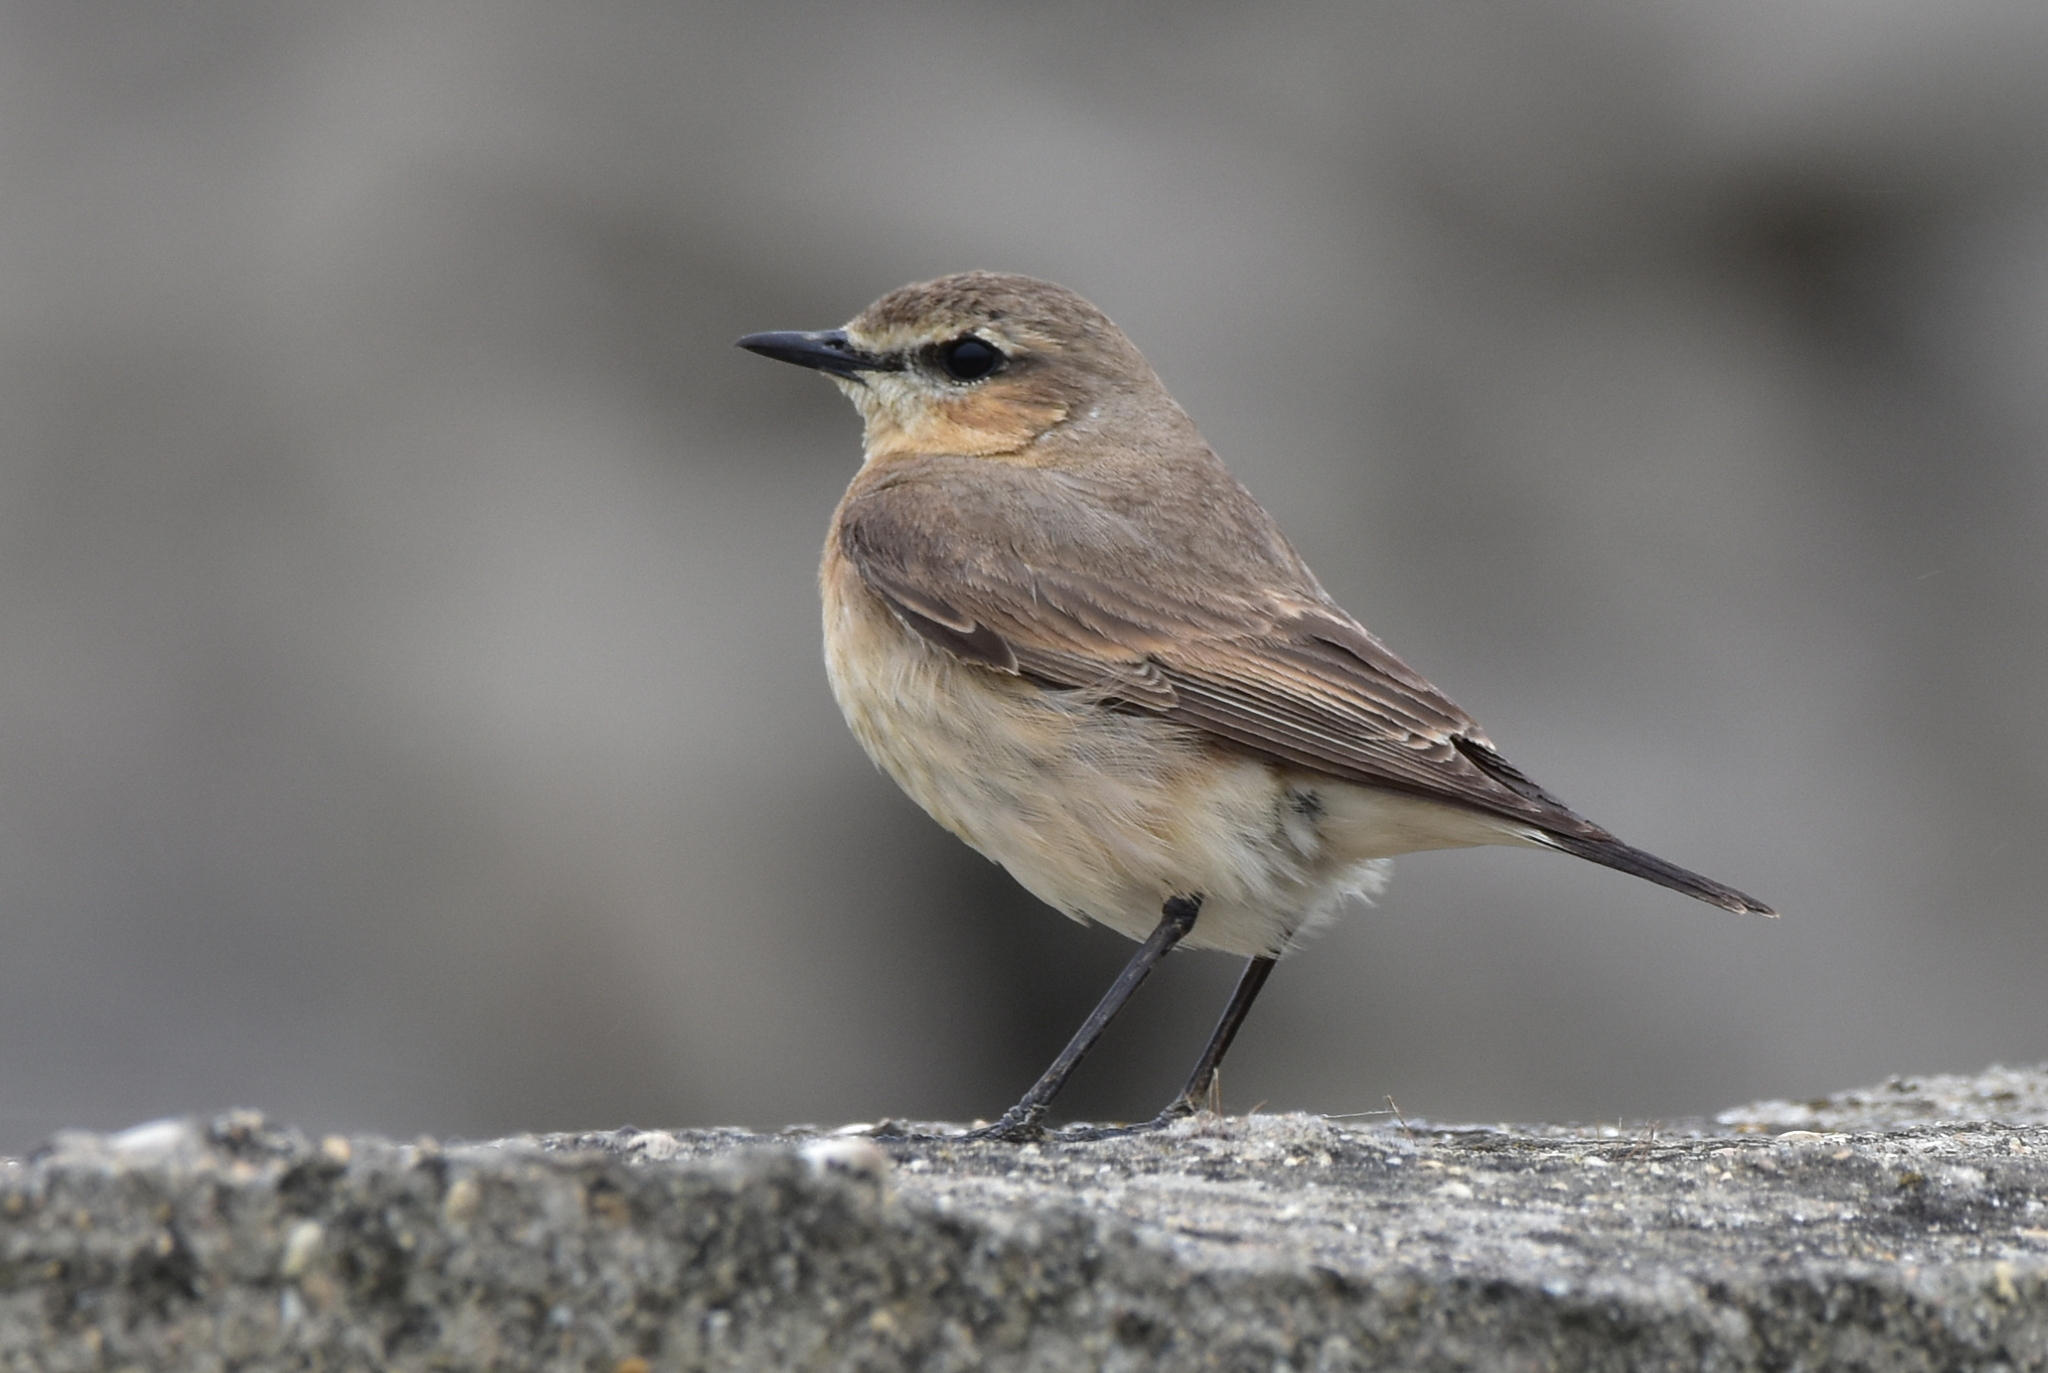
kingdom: Animalia
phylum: Chordata
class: Aves
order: Passeriformes
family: Muscicapidae
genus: Oenanthe
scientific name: Oenanthe isabellina
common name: Isabelline wheatear
